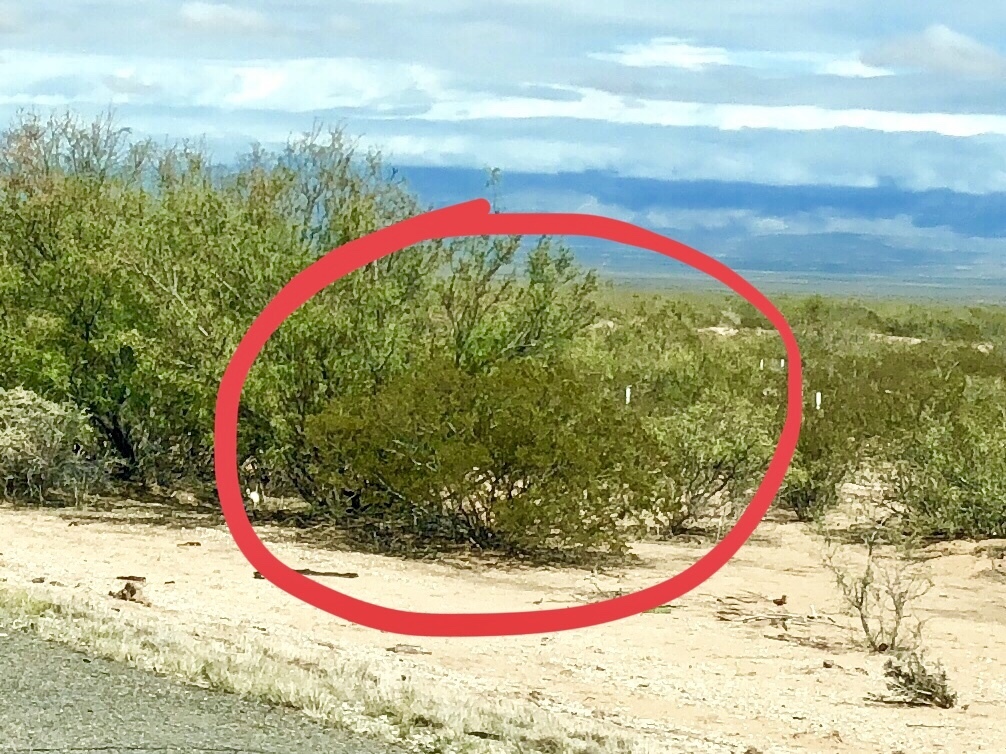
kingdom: Plantae
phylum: Tracheophyta
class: Magnoliopsida
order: Zygophyllales
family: Zygophyllaceae
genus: Larrea
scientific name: Larrea tridentata
